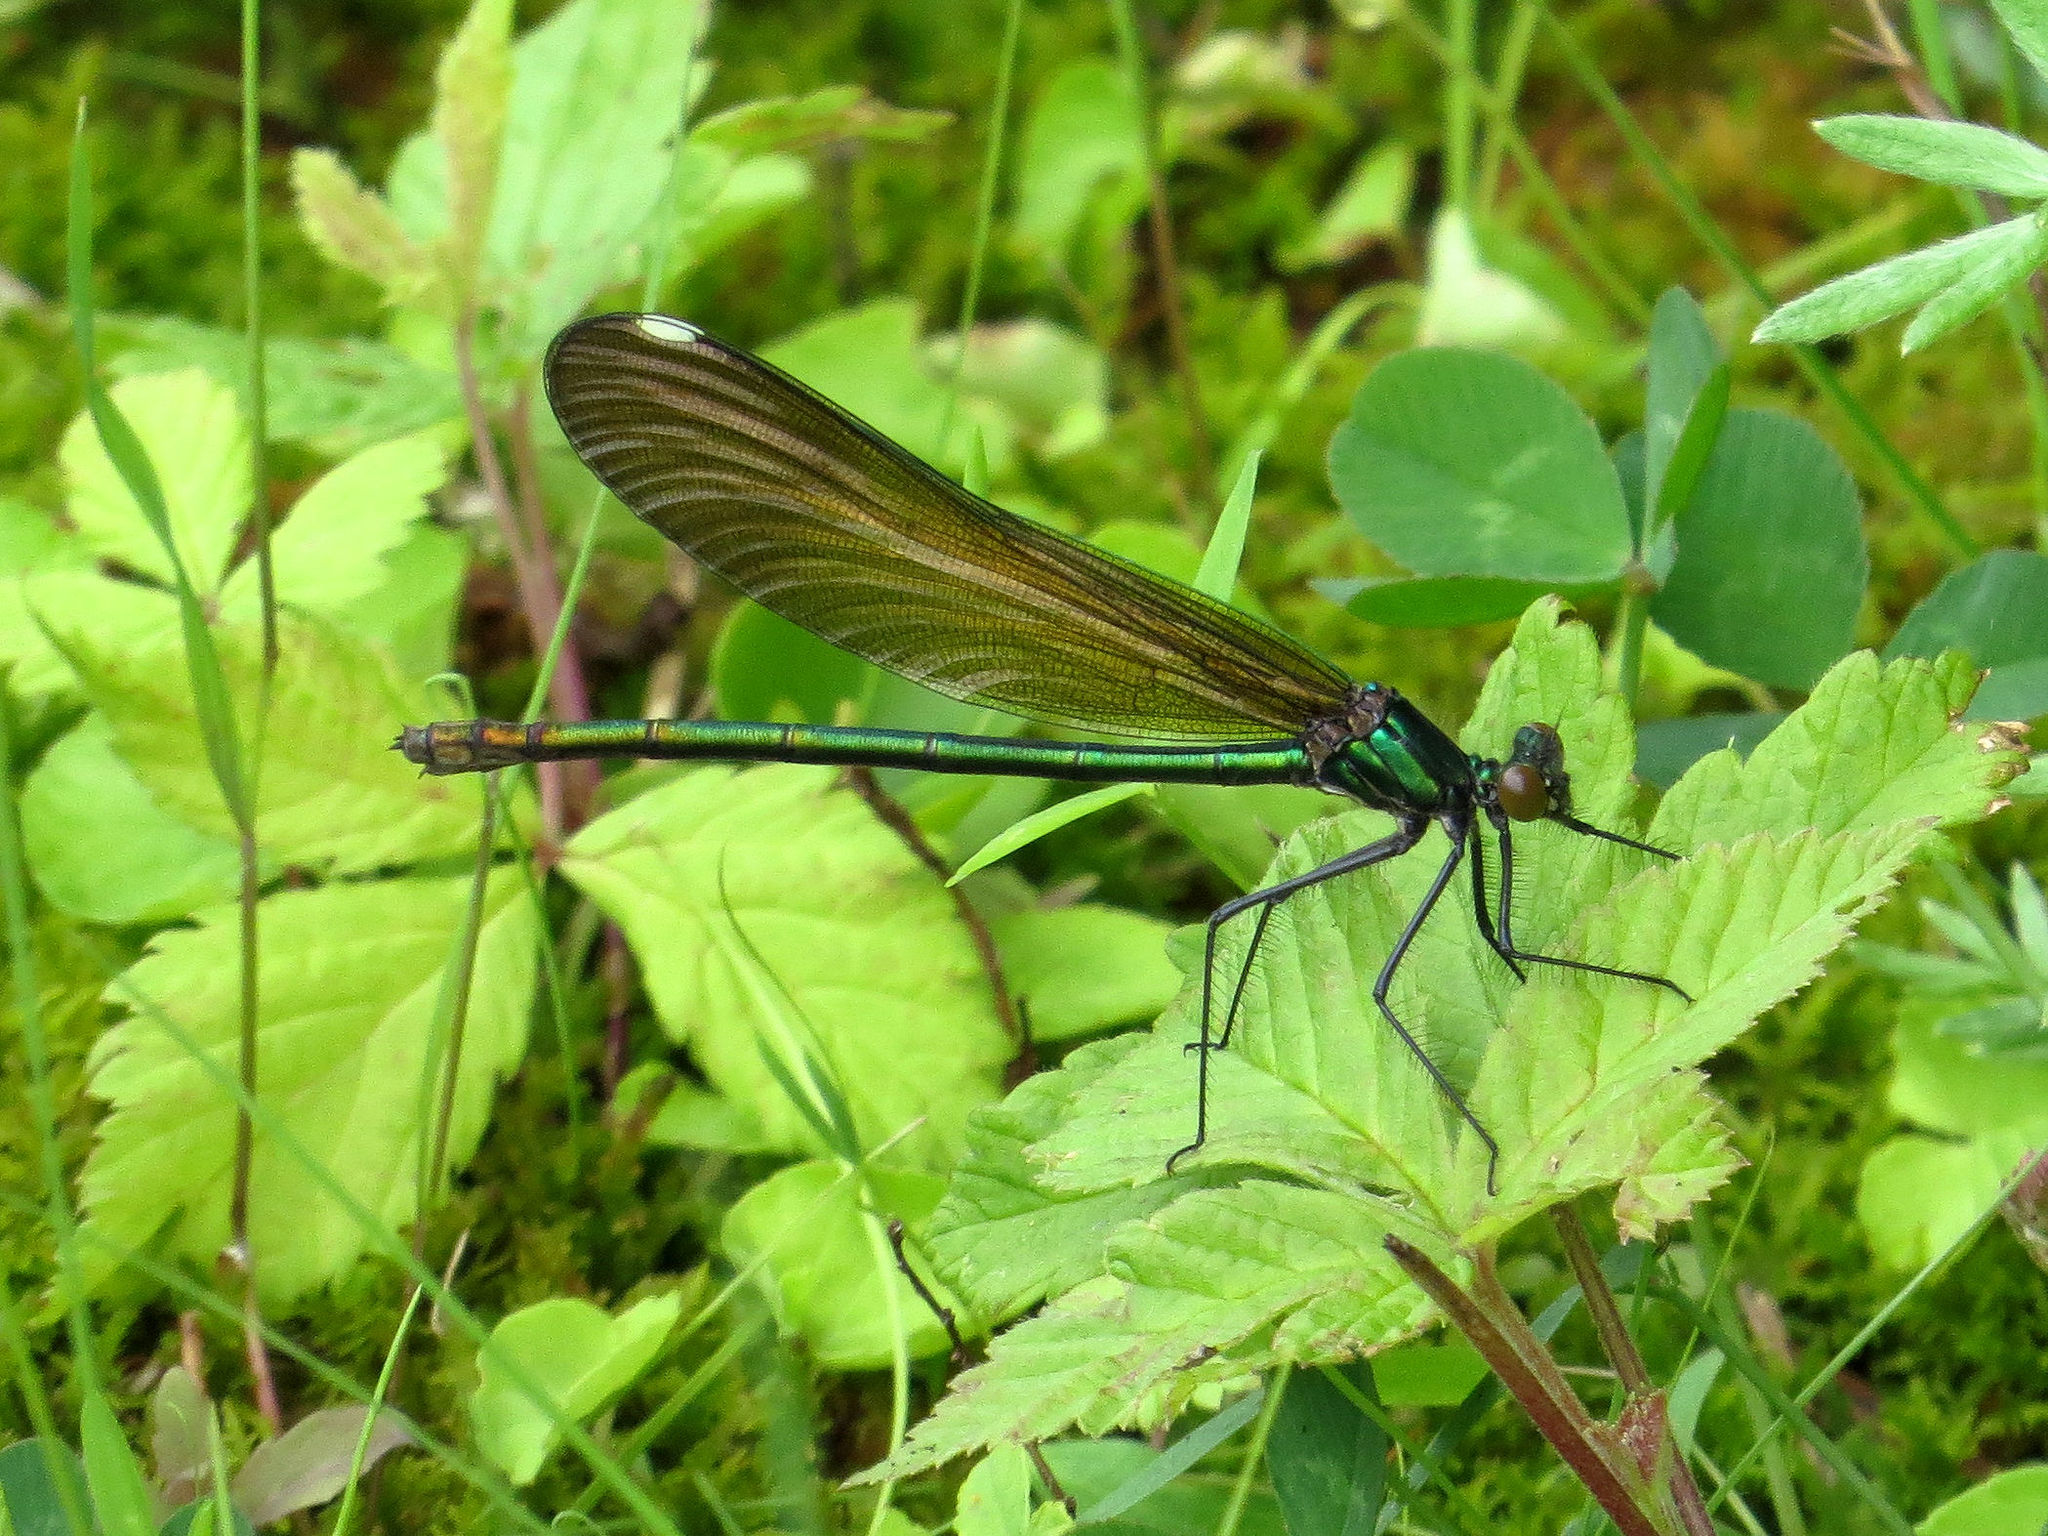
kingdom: Animalia
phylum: Arthropoda
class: Insecta
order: Odonata
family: Calopterygidae
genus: Calopteryx
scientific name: Calopteryx maculata
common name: Ebony jewelwing
